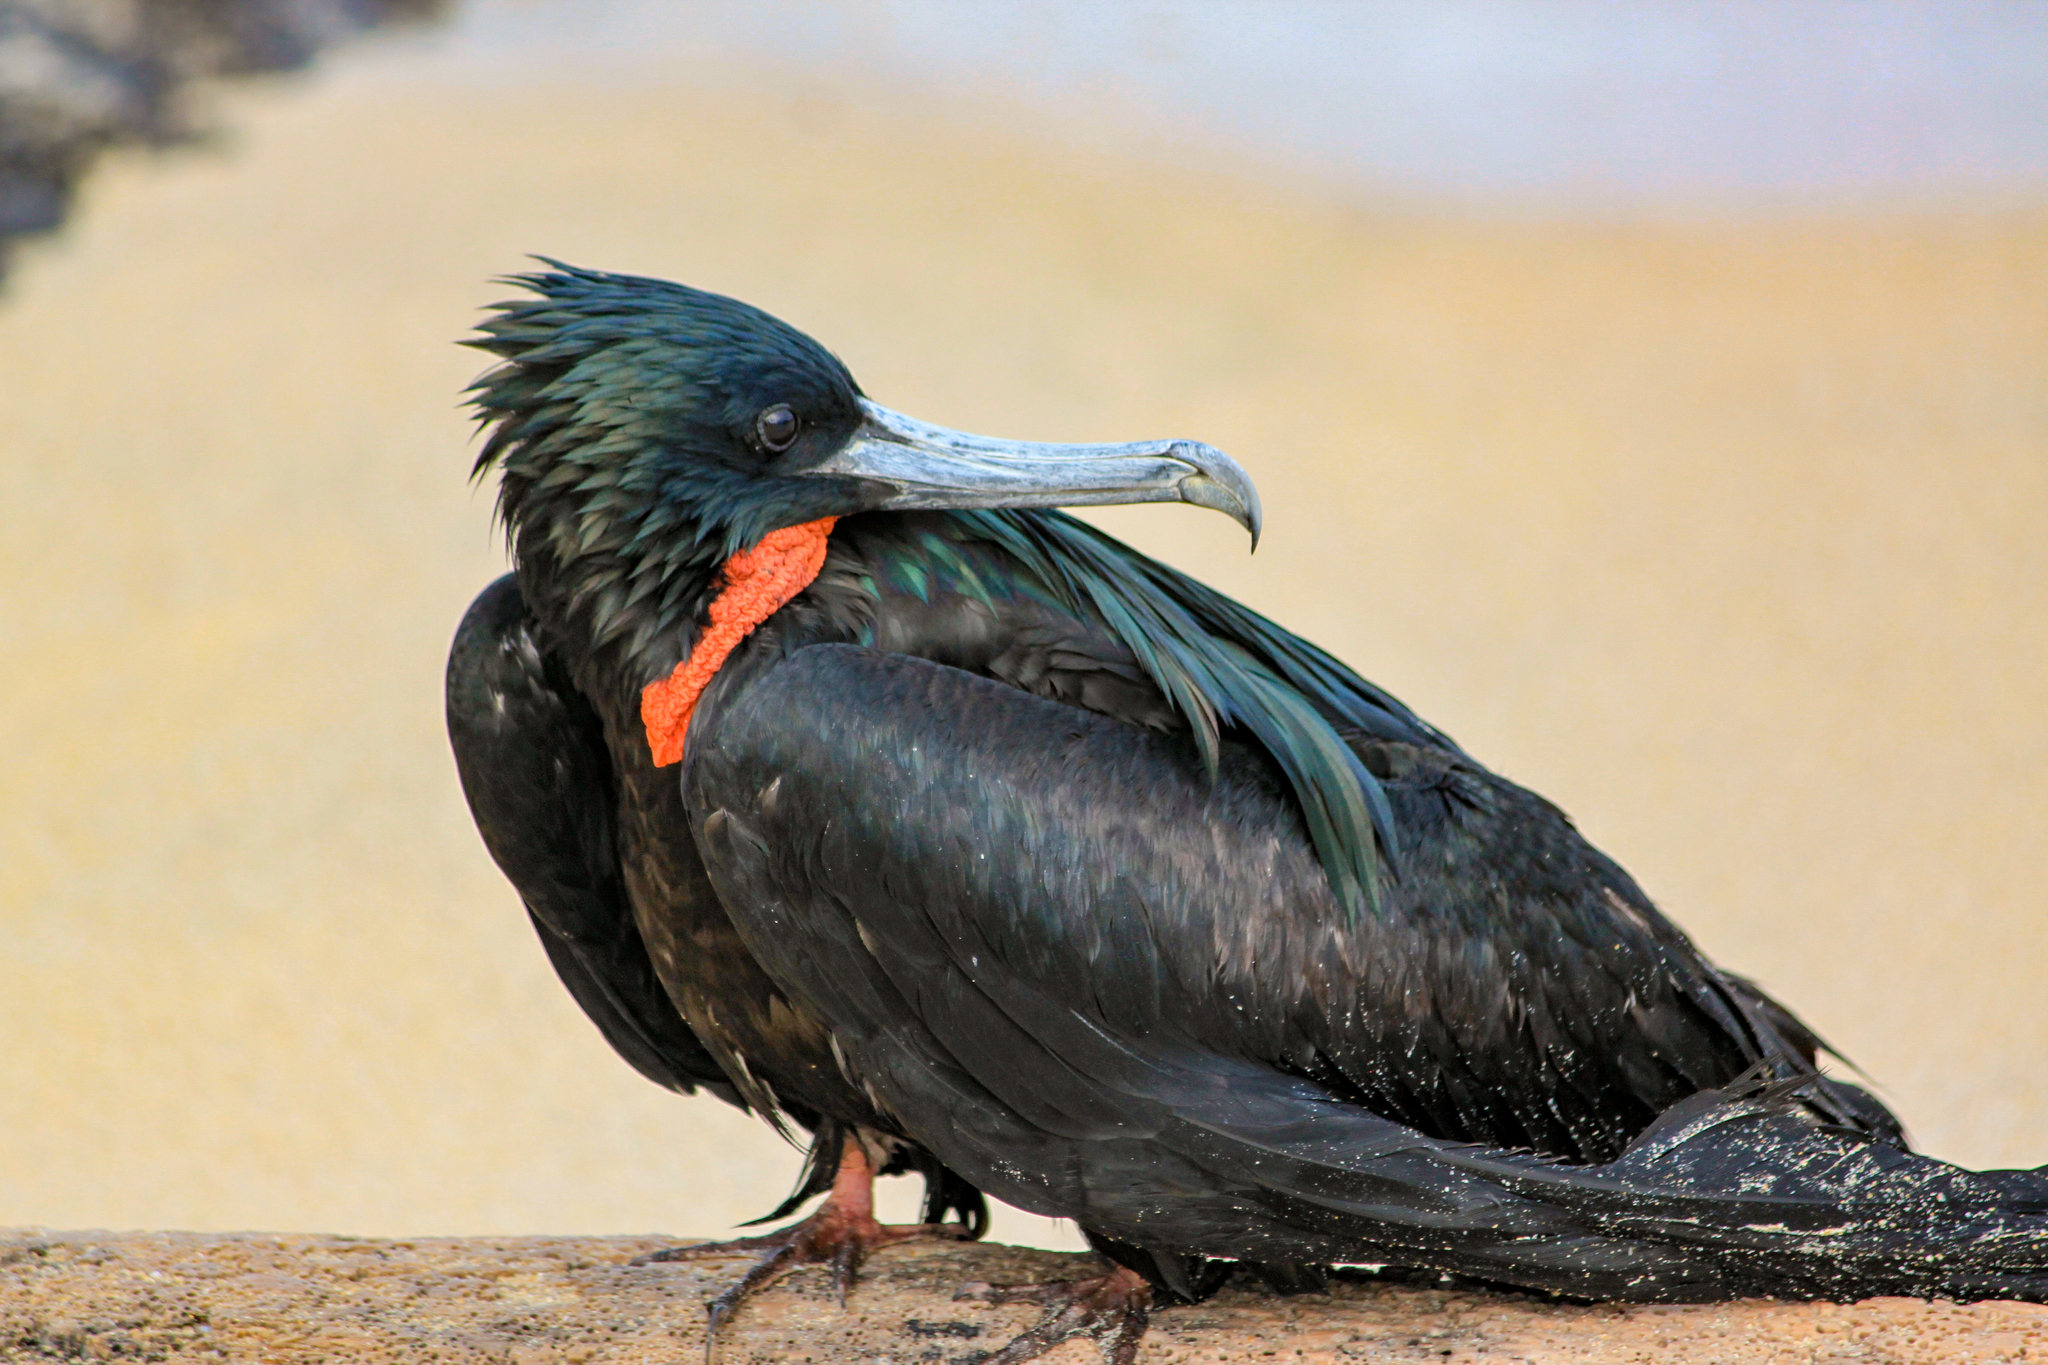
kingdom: Animalia
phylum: Chordata
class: Aves
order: Suliformes
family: Fregatidae
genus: Fregata
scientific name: Fregata minor
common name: Great frigatebird
